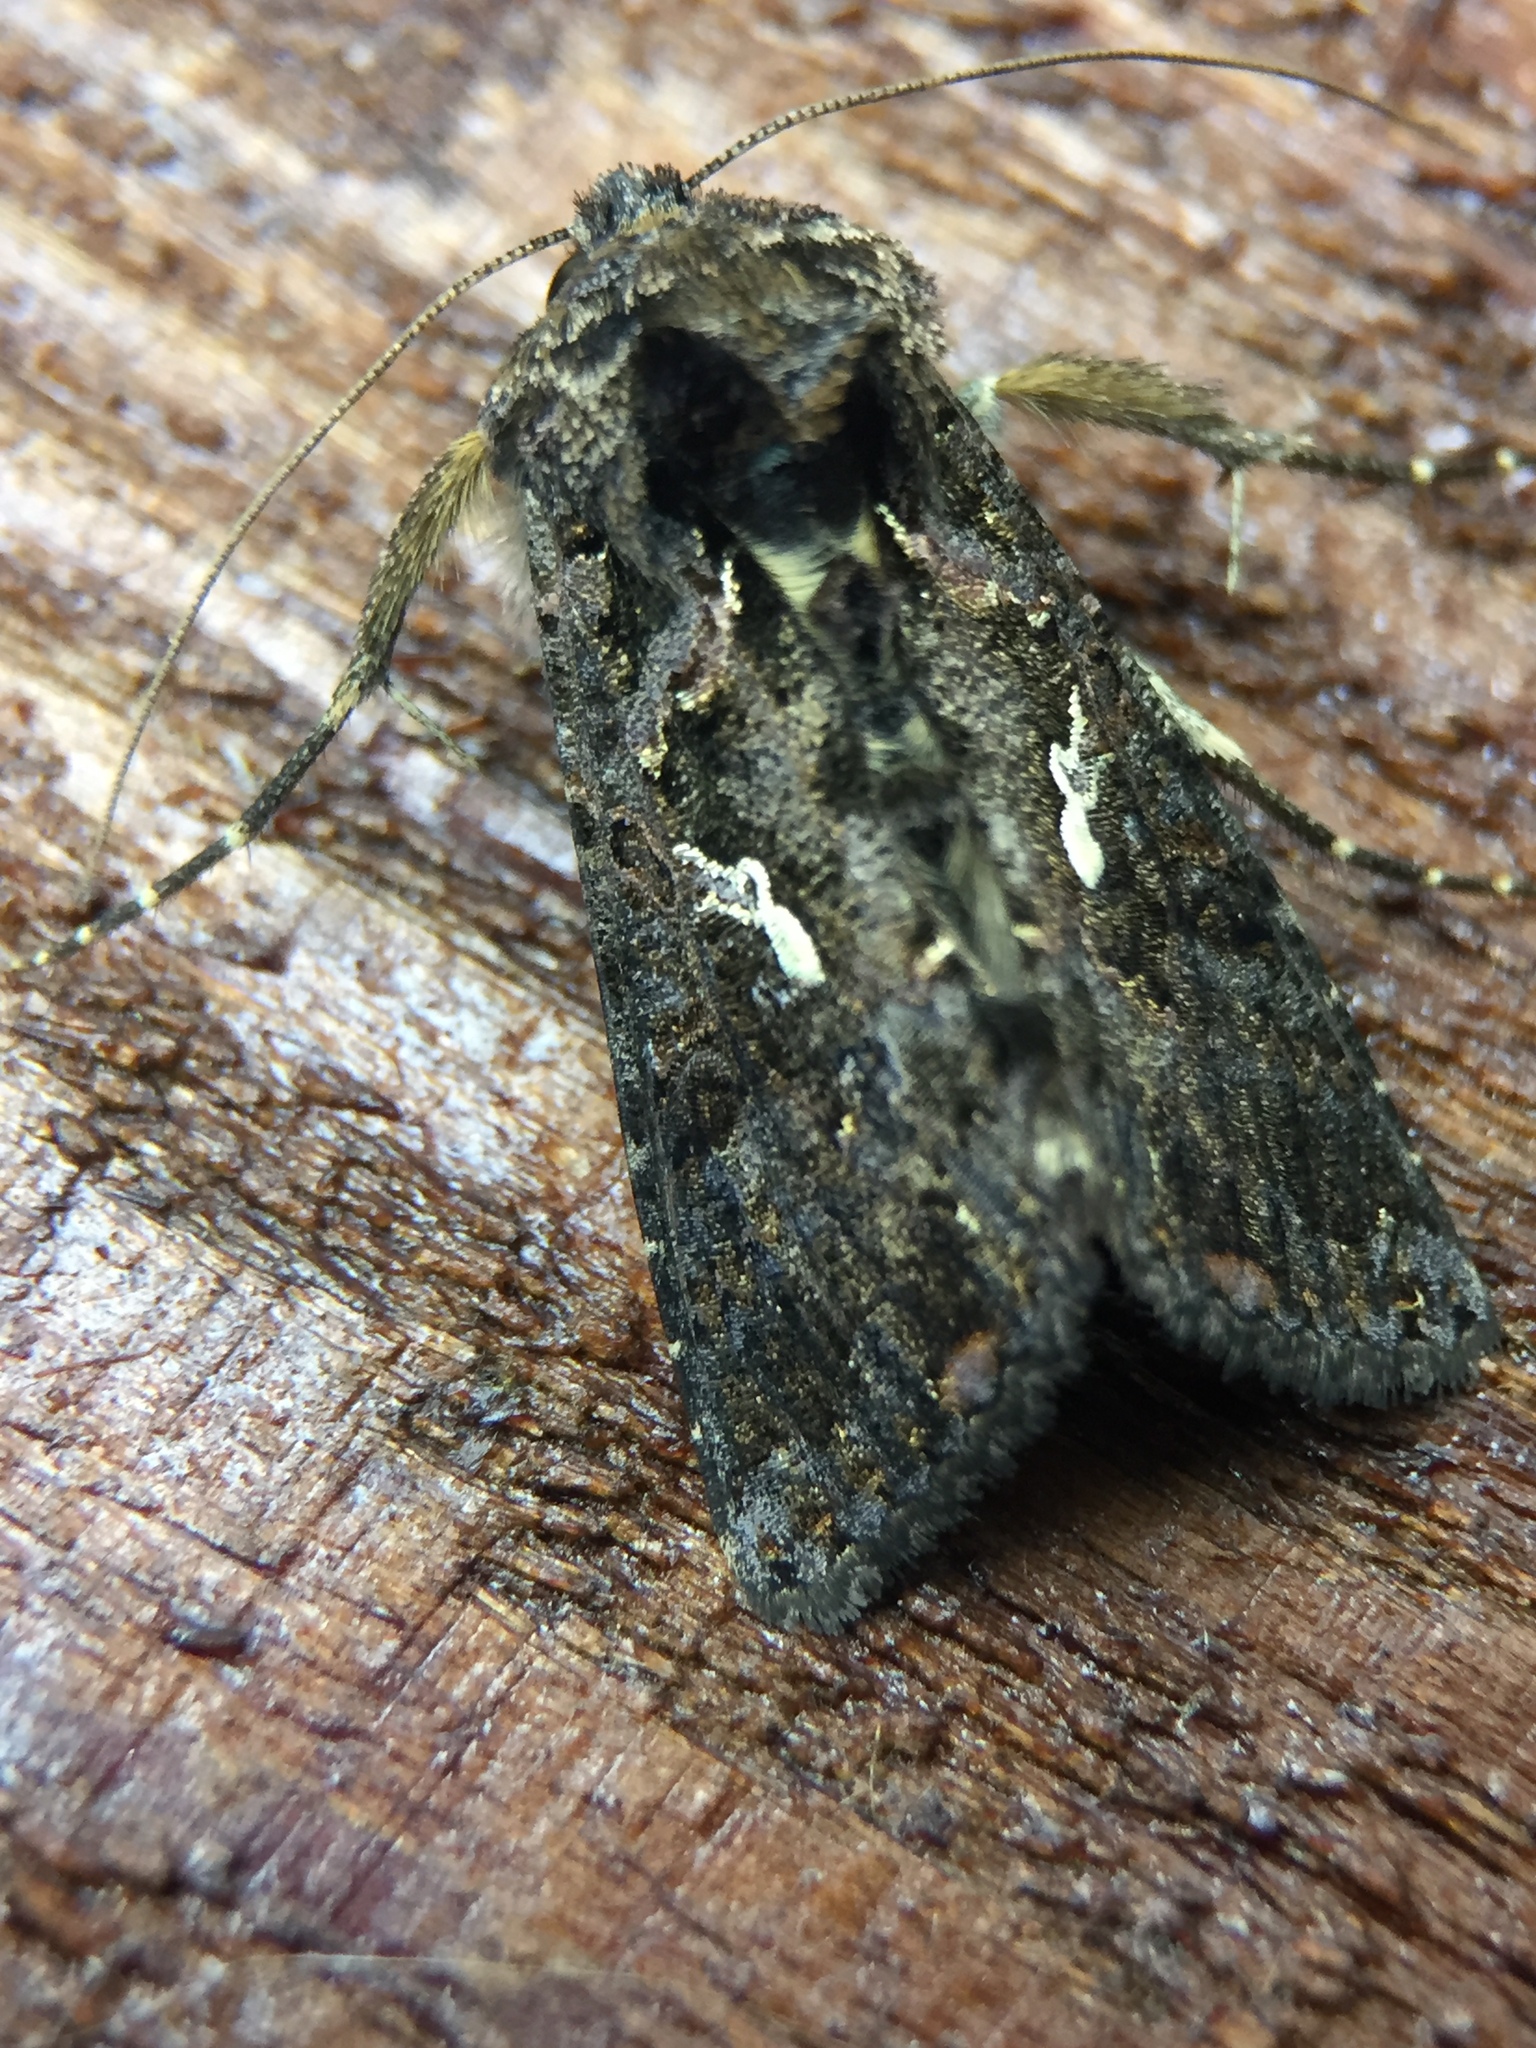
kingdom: Animalia
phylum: Arthropoda
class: Insecta
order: Lepidoptera
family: Noctuidae
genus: Ctenoplusia
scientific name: Ctenoplusia limbirena
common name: Scar bank gem
